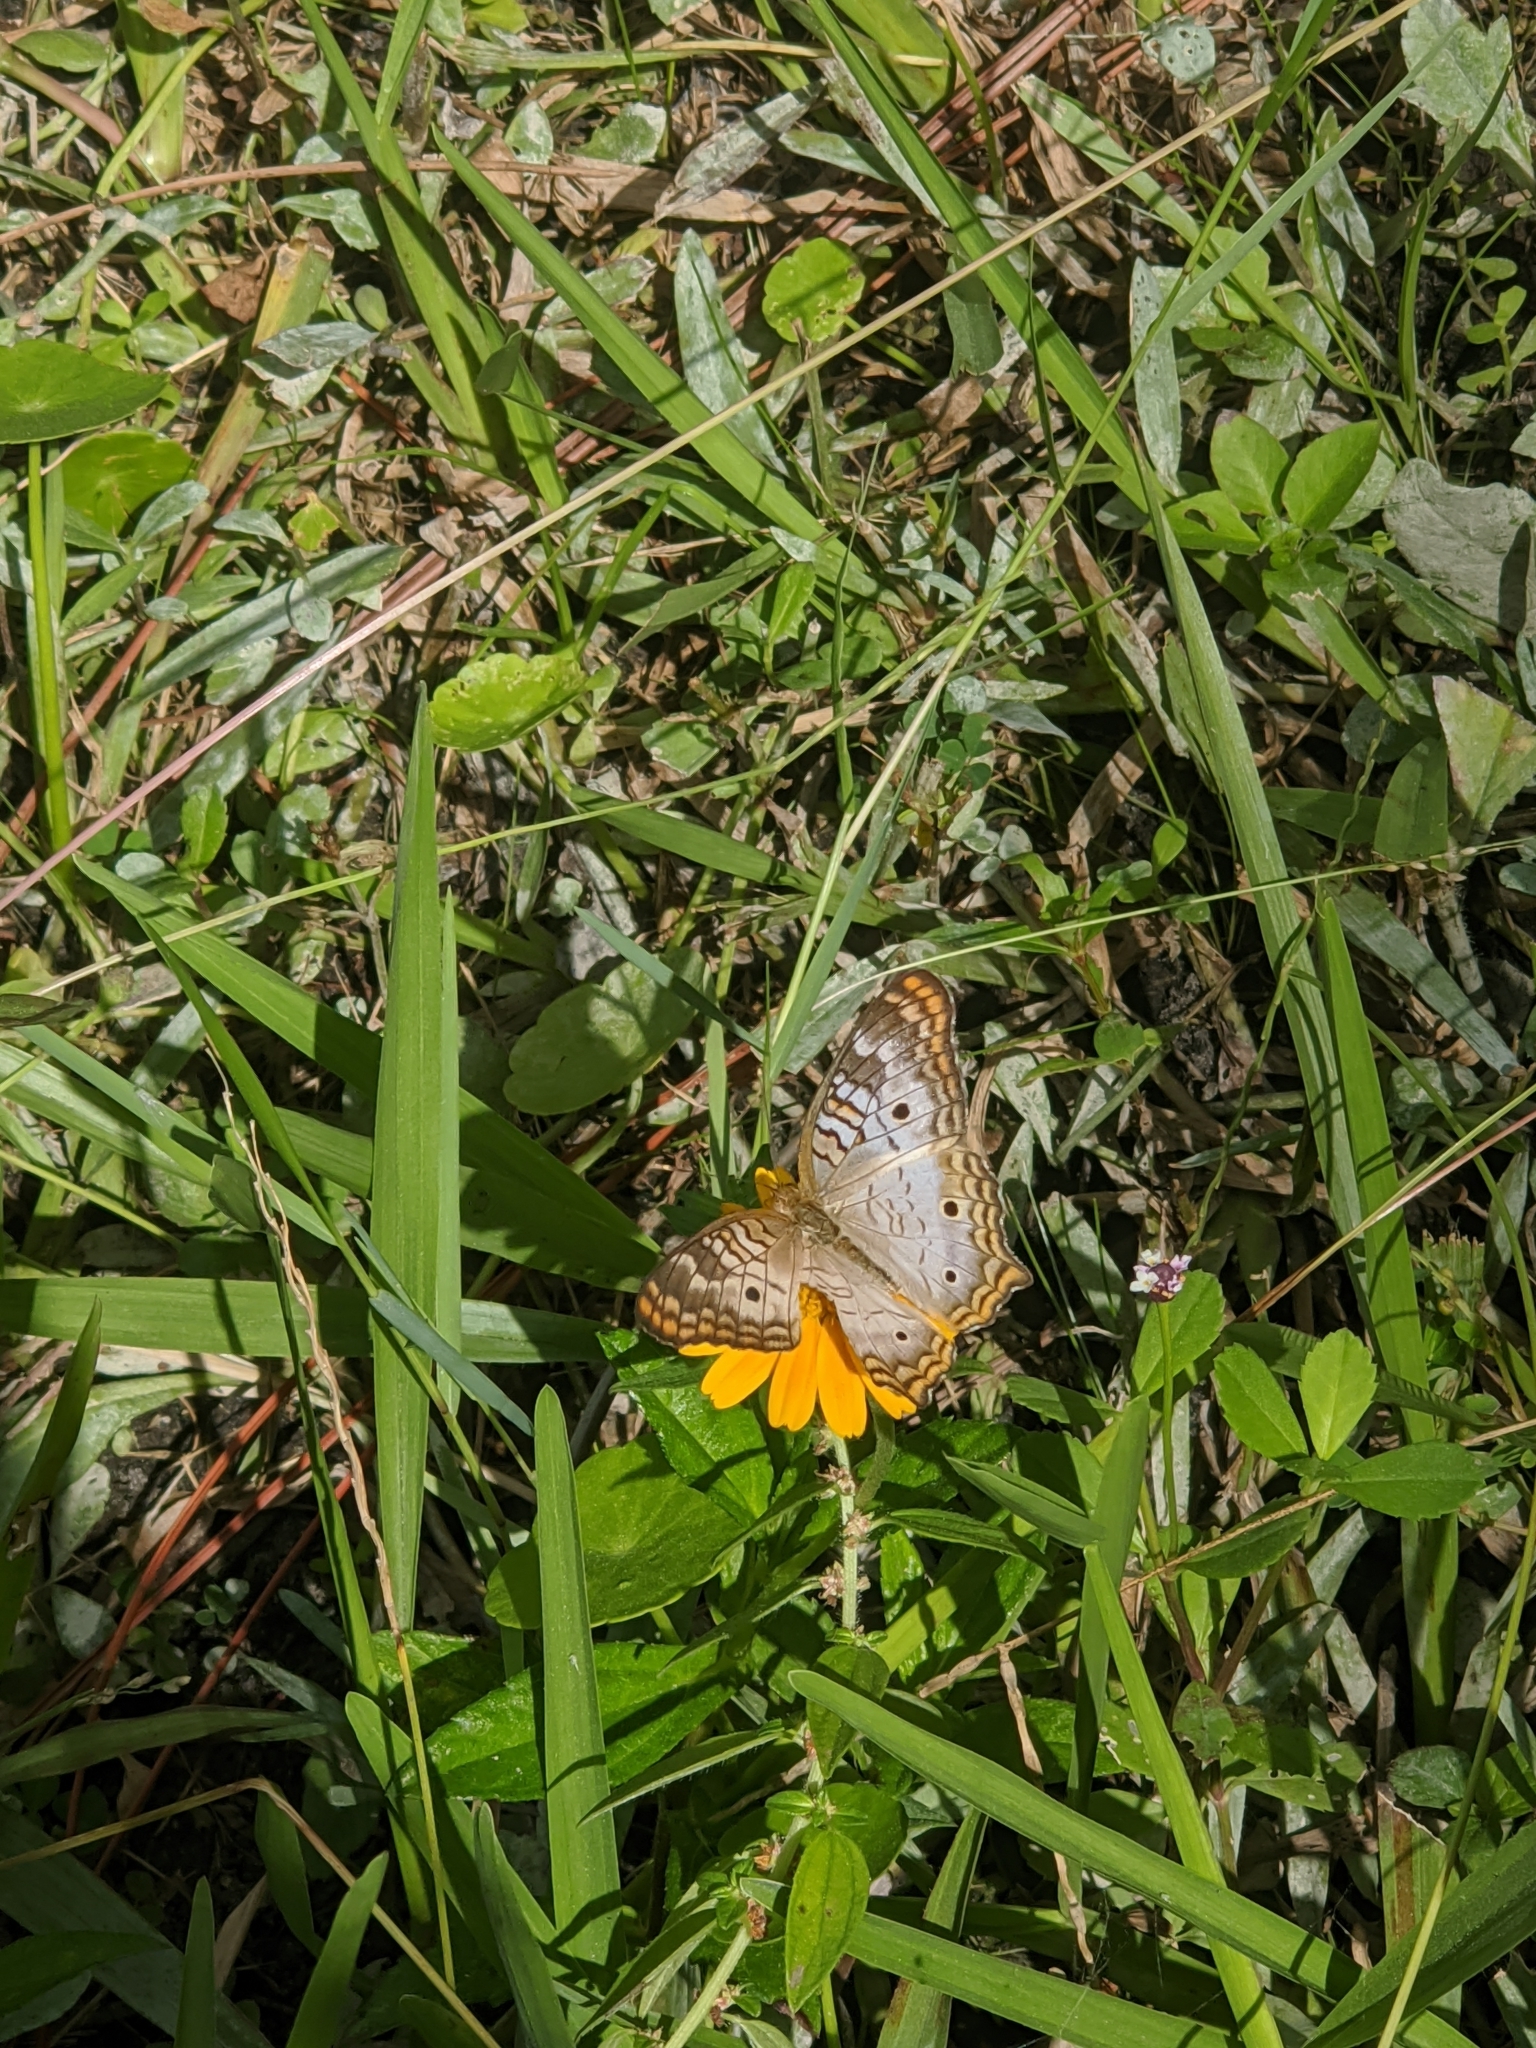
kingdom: Animalia
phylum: Arthropoda
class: Insecta
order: Lepidoptera
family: Nymphalidae
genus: Anartia
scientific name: Anartia jatrophae
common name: White peacock
